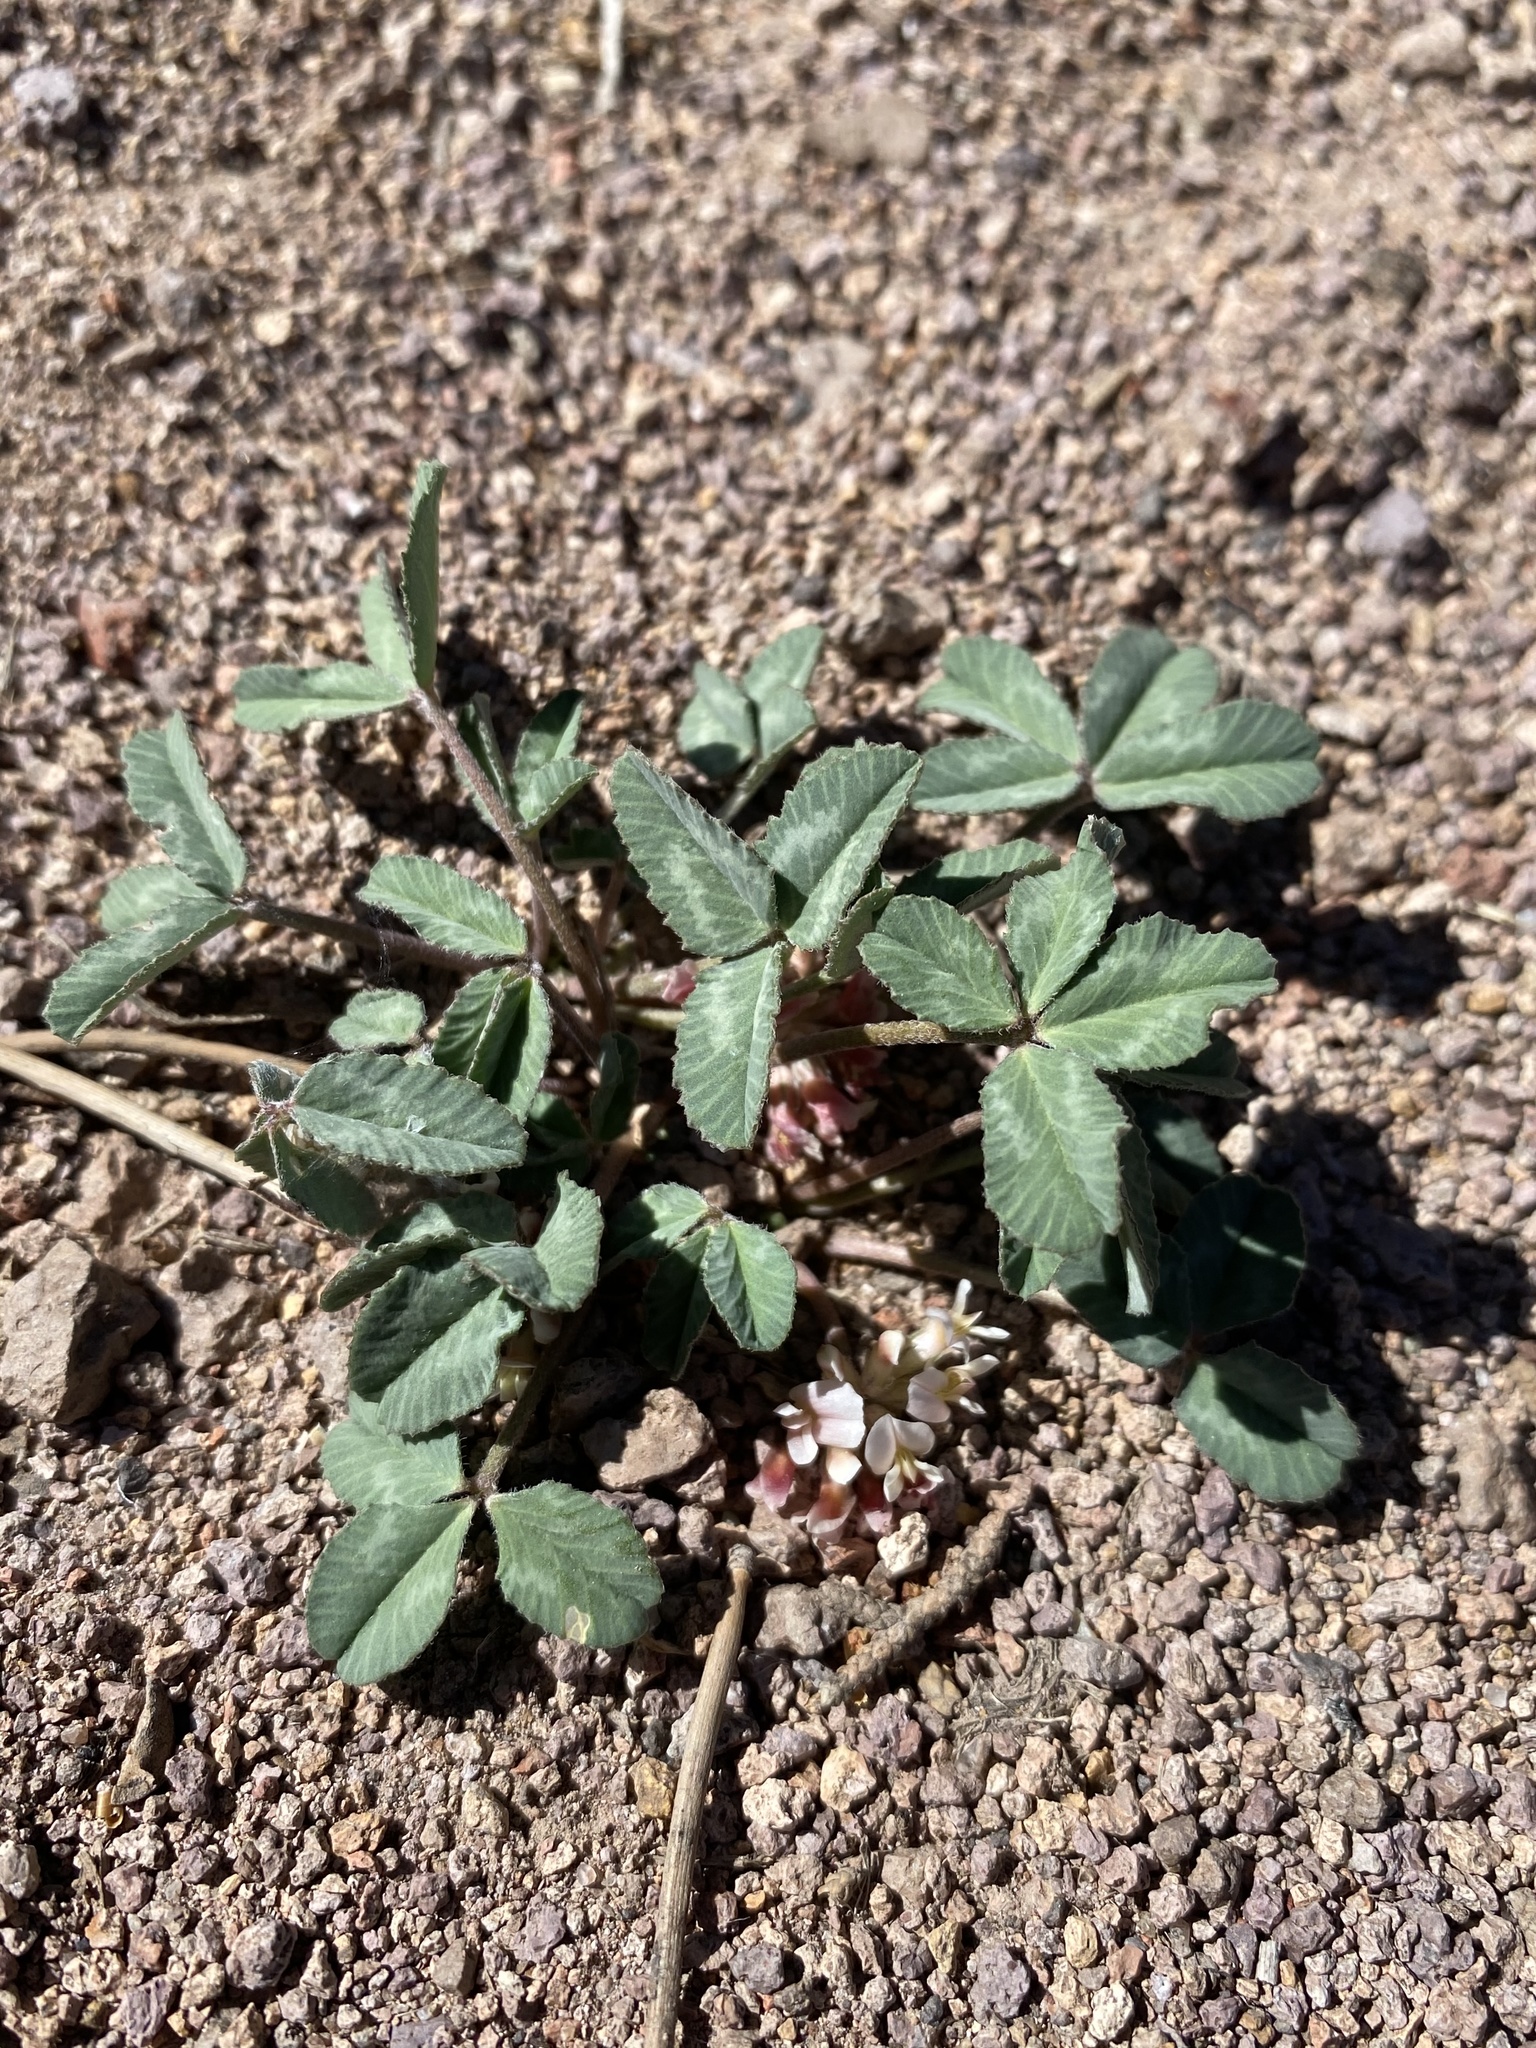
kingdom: Plantae
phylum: Tracheophyta
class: Magnoliopsida
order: Fabales
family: Fabaceae
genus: Trifolium
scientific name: Trifolium gymnocarpon
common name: Tufted clover
